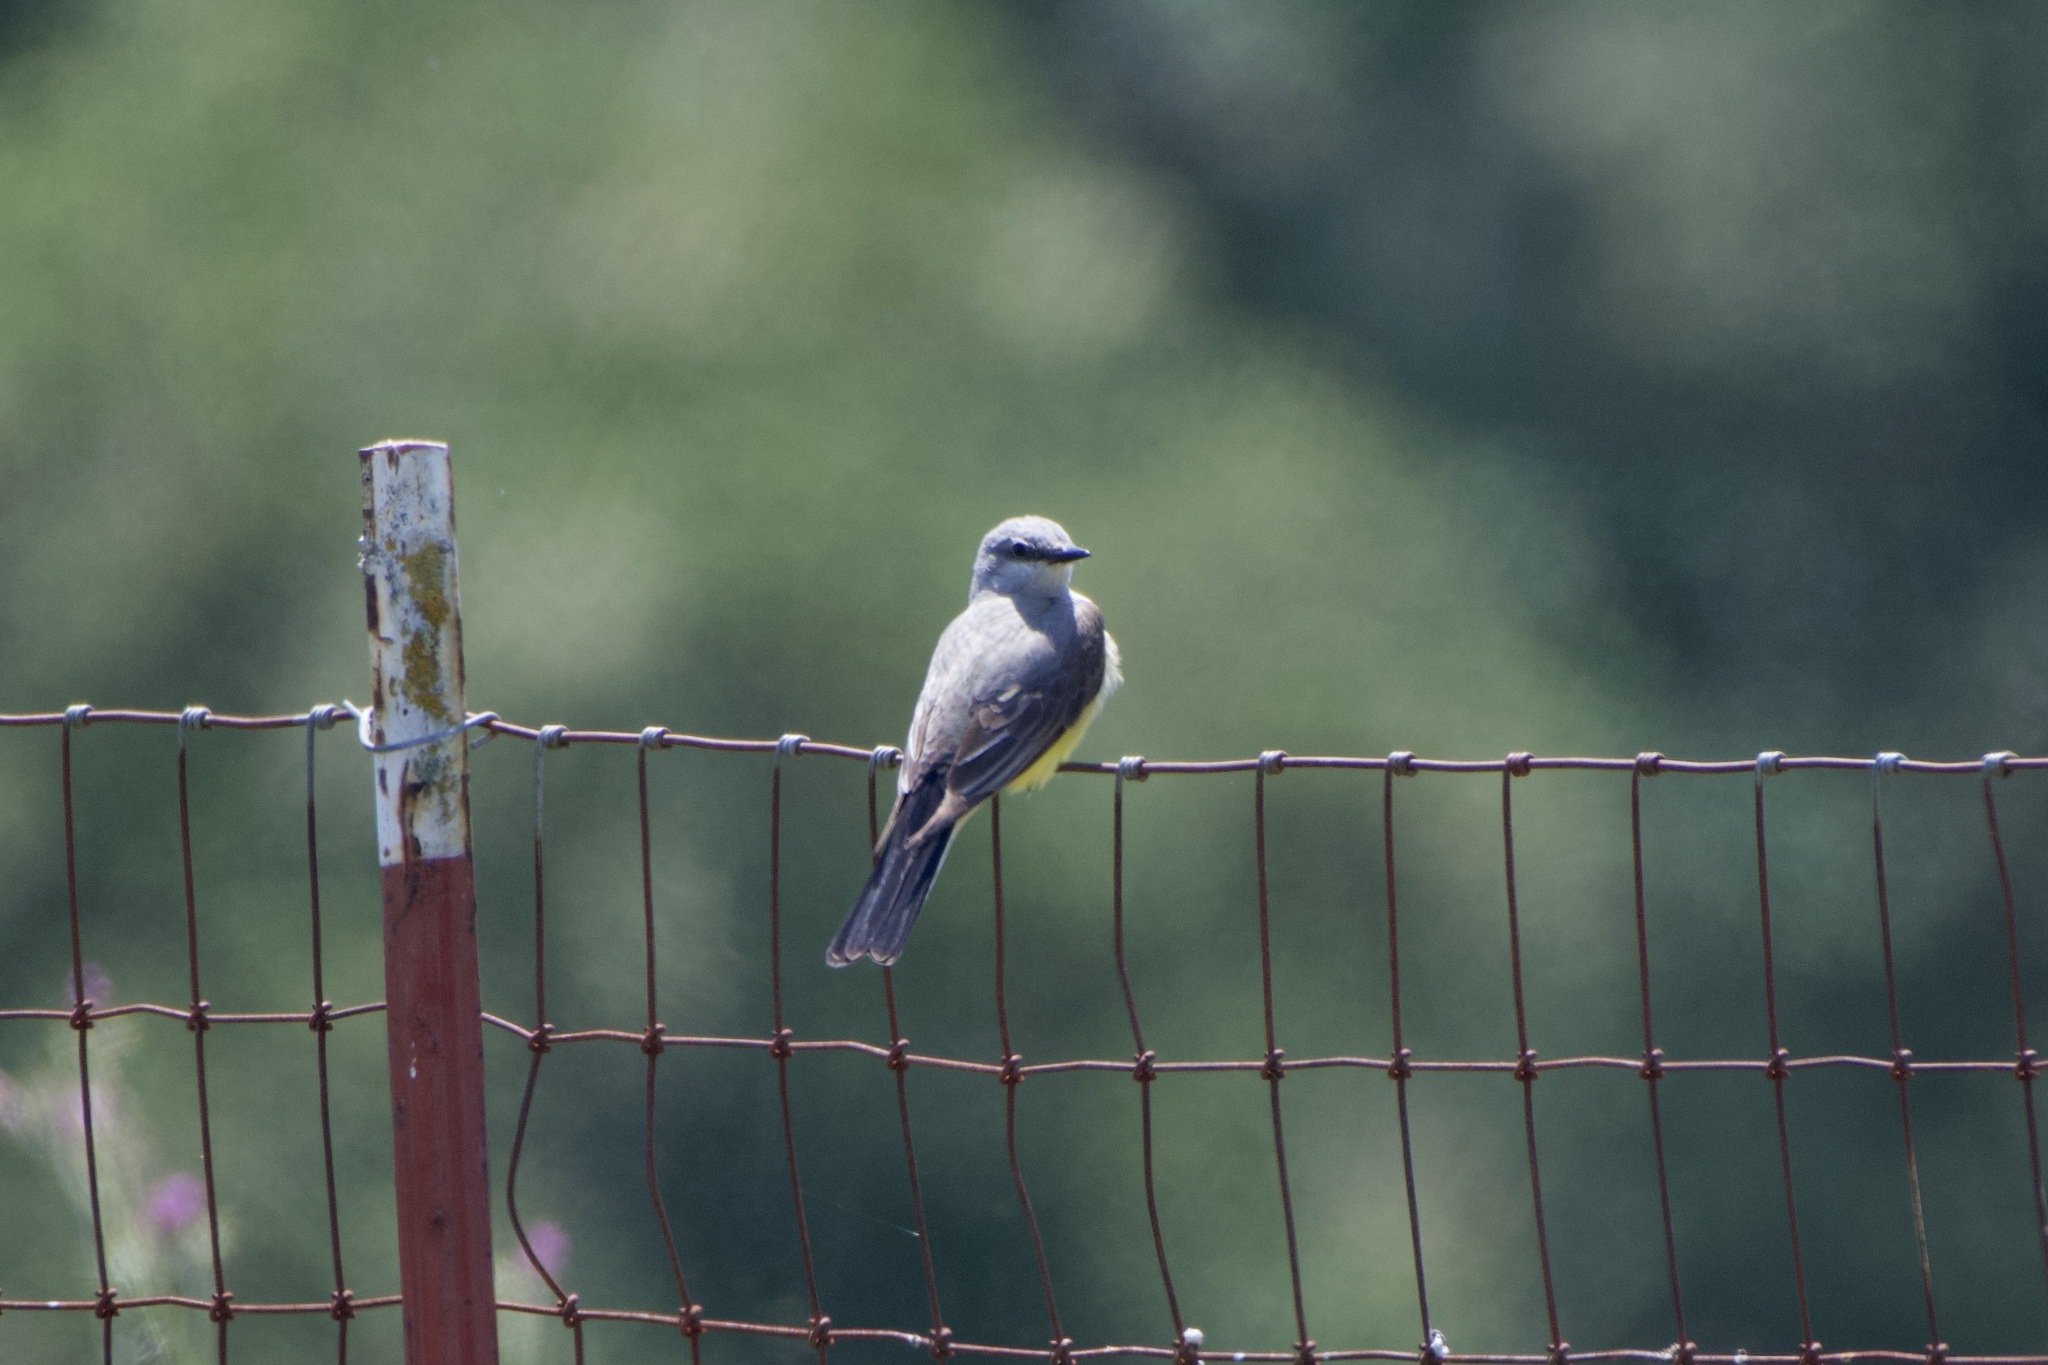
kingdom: Animalia
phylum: Chordata
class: Aves
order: Passeriformes
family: Tyrannidae
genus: Tyrannus
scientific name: Tyrannus verticalis
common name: Western kingbird
